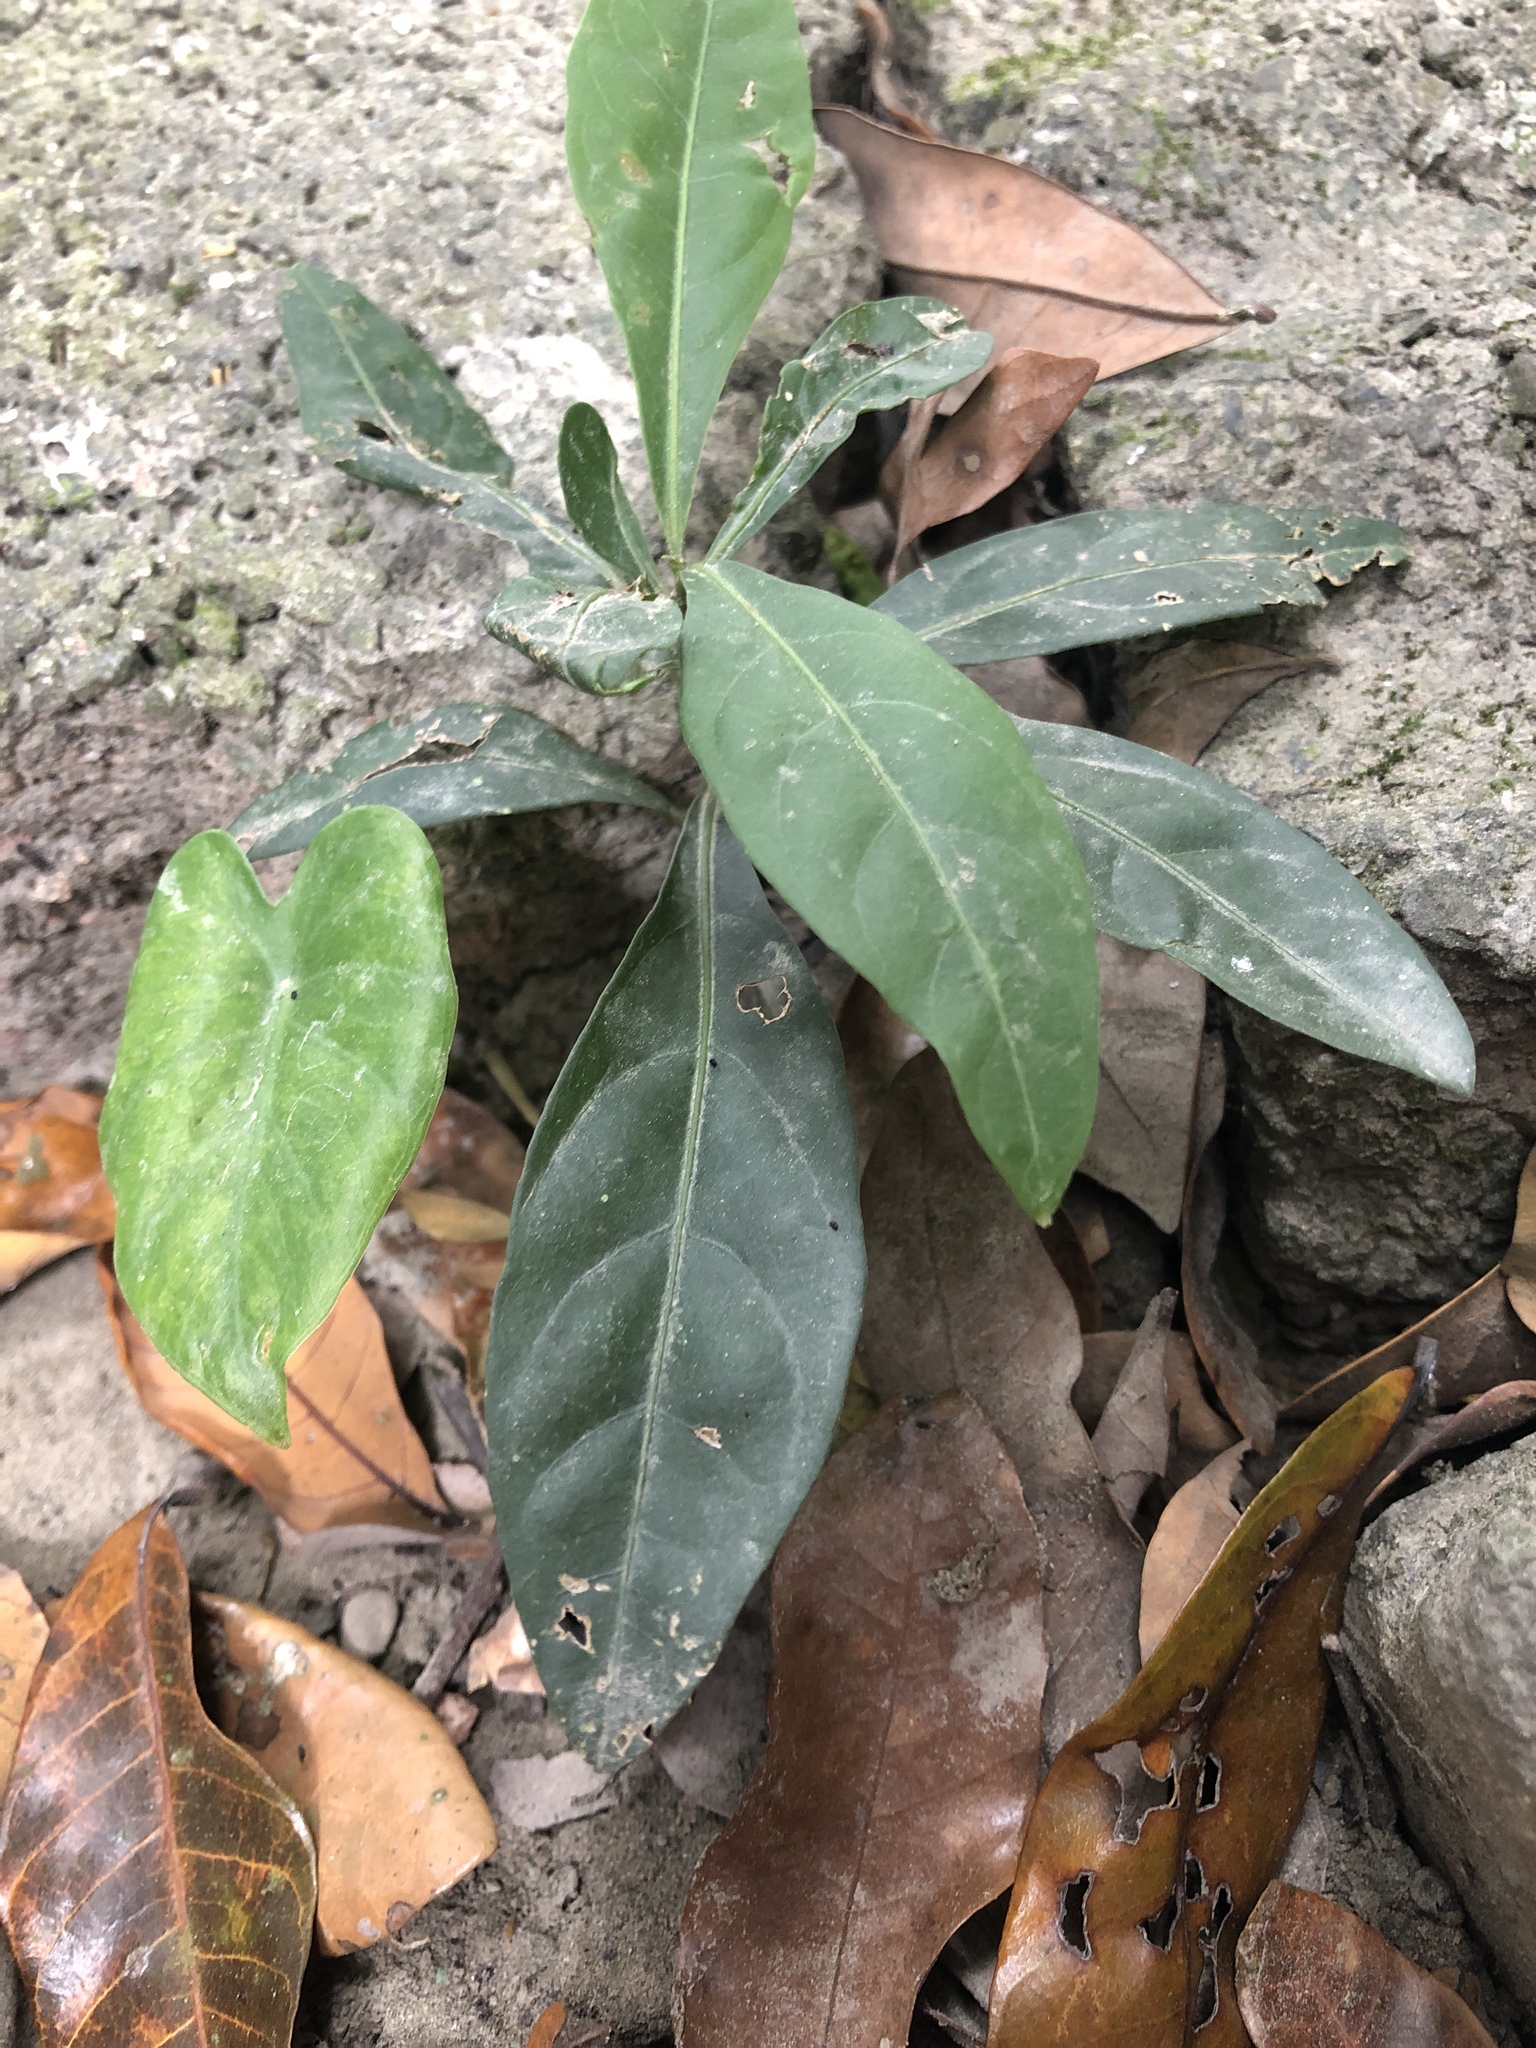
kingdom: Plantae
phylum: Tracheophyta
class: Magnoliopsida
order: Solanales
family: Solanaceae
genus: Solanum
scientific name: Solanum diphyllum
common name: Twoleaf nightshade
